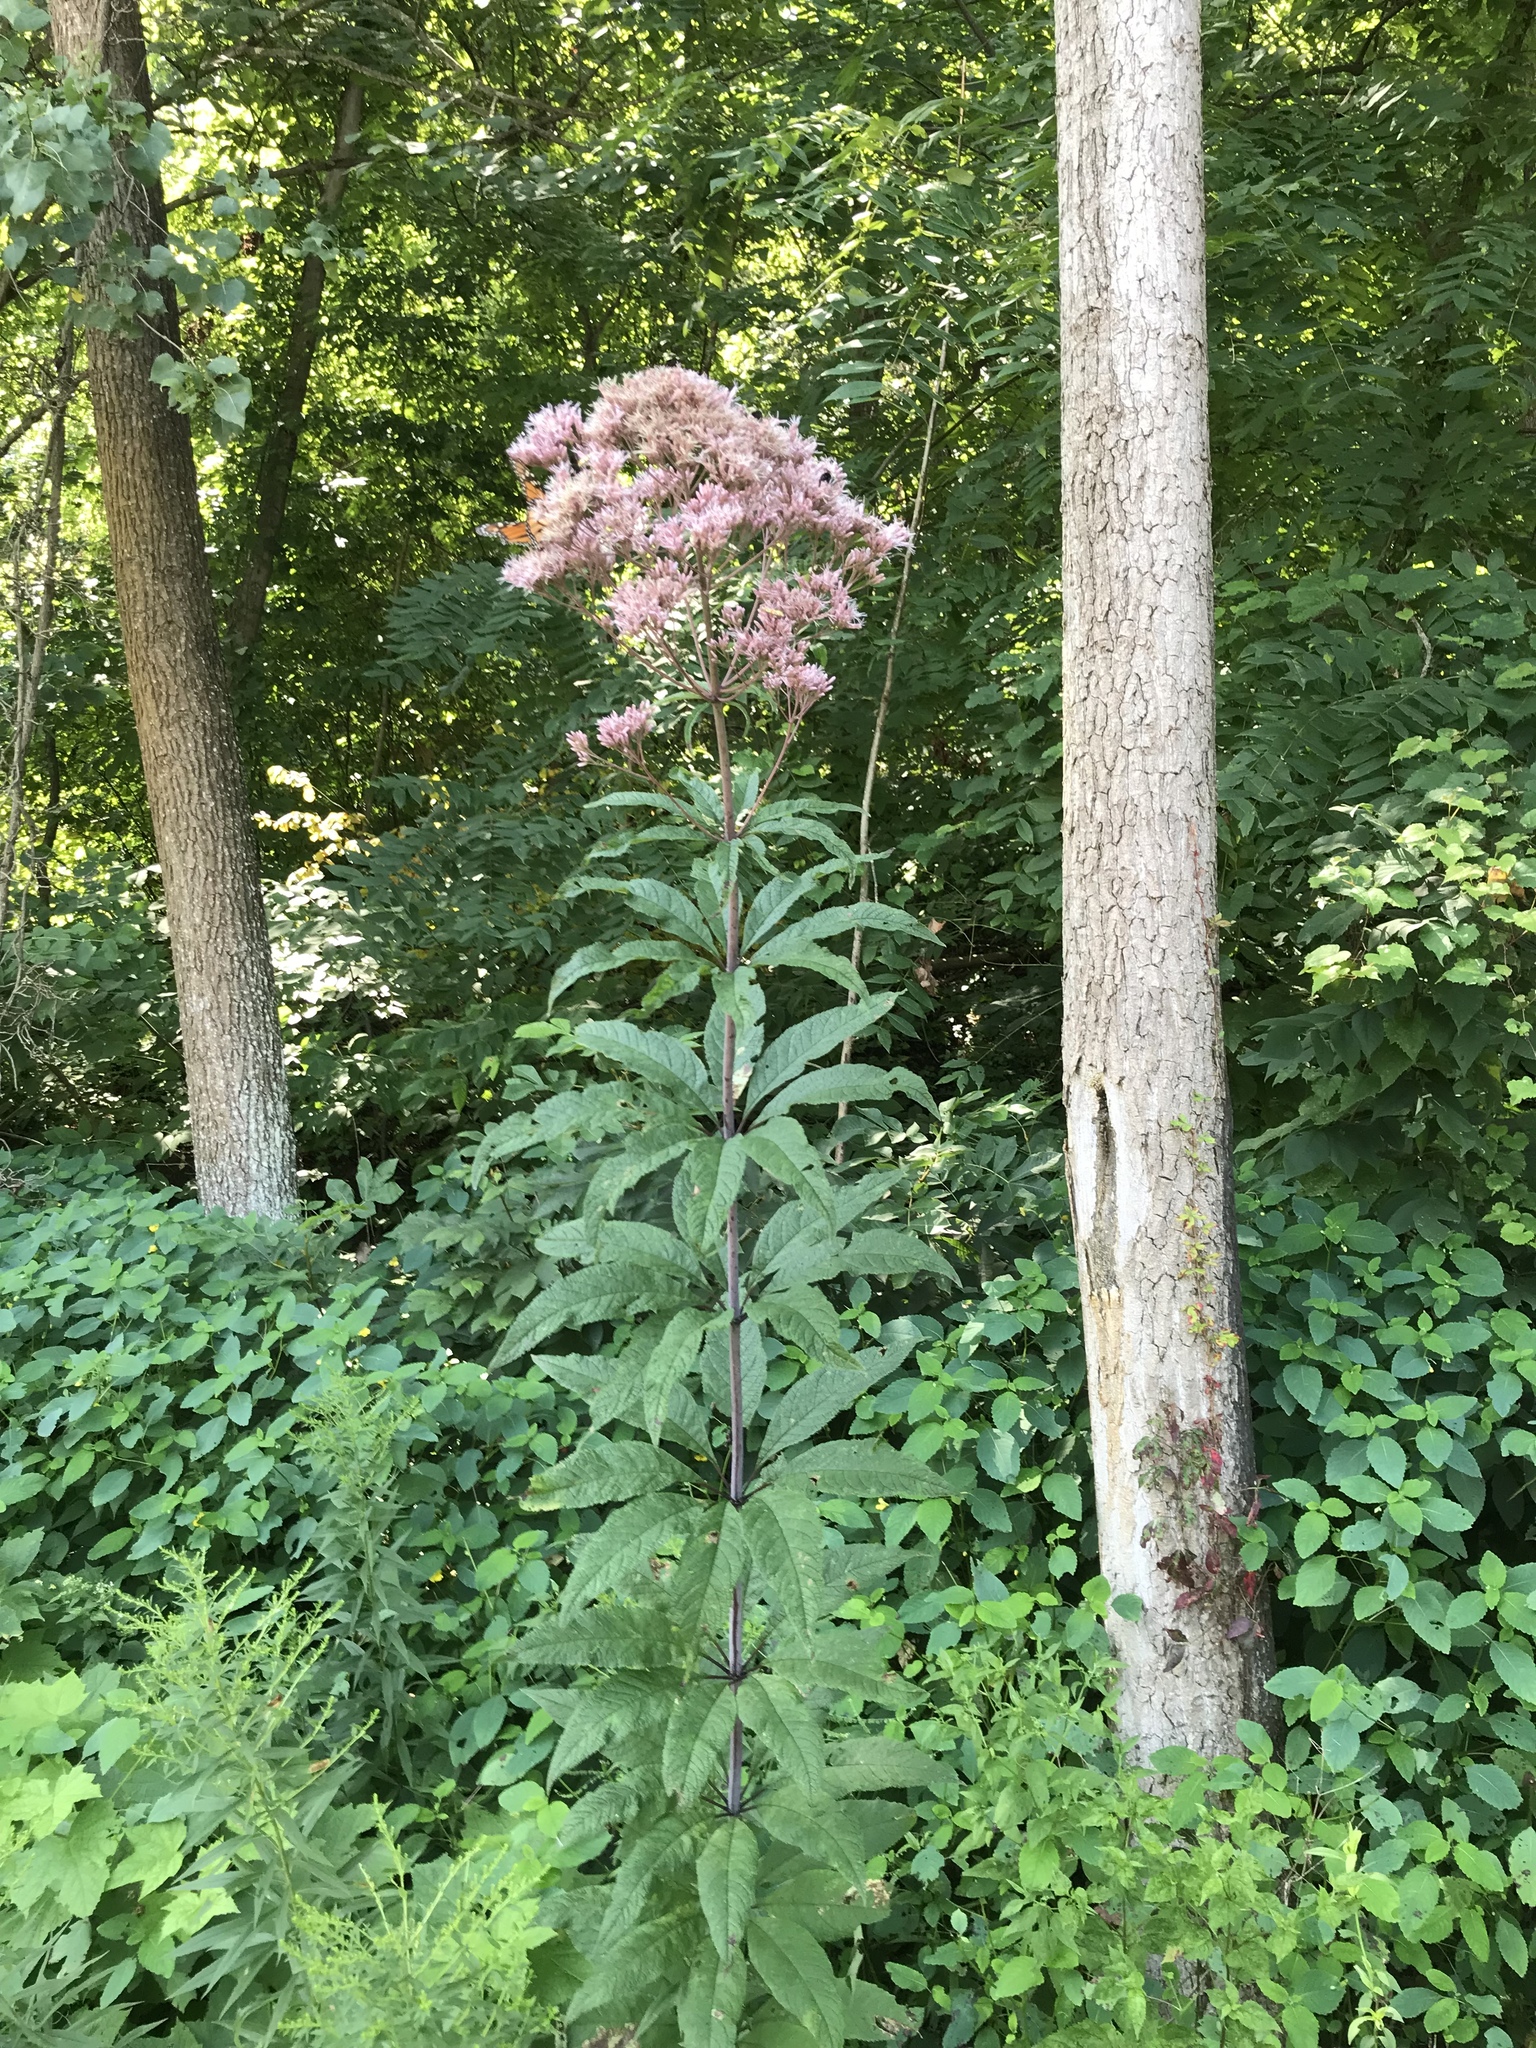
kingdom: Plantae
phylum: Tracheophyta
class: Magnoliopsida
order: Asterales
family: Asteraceae
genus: Eutrochium
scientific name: Eutrochium fistulosum
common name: Trumpetweed
